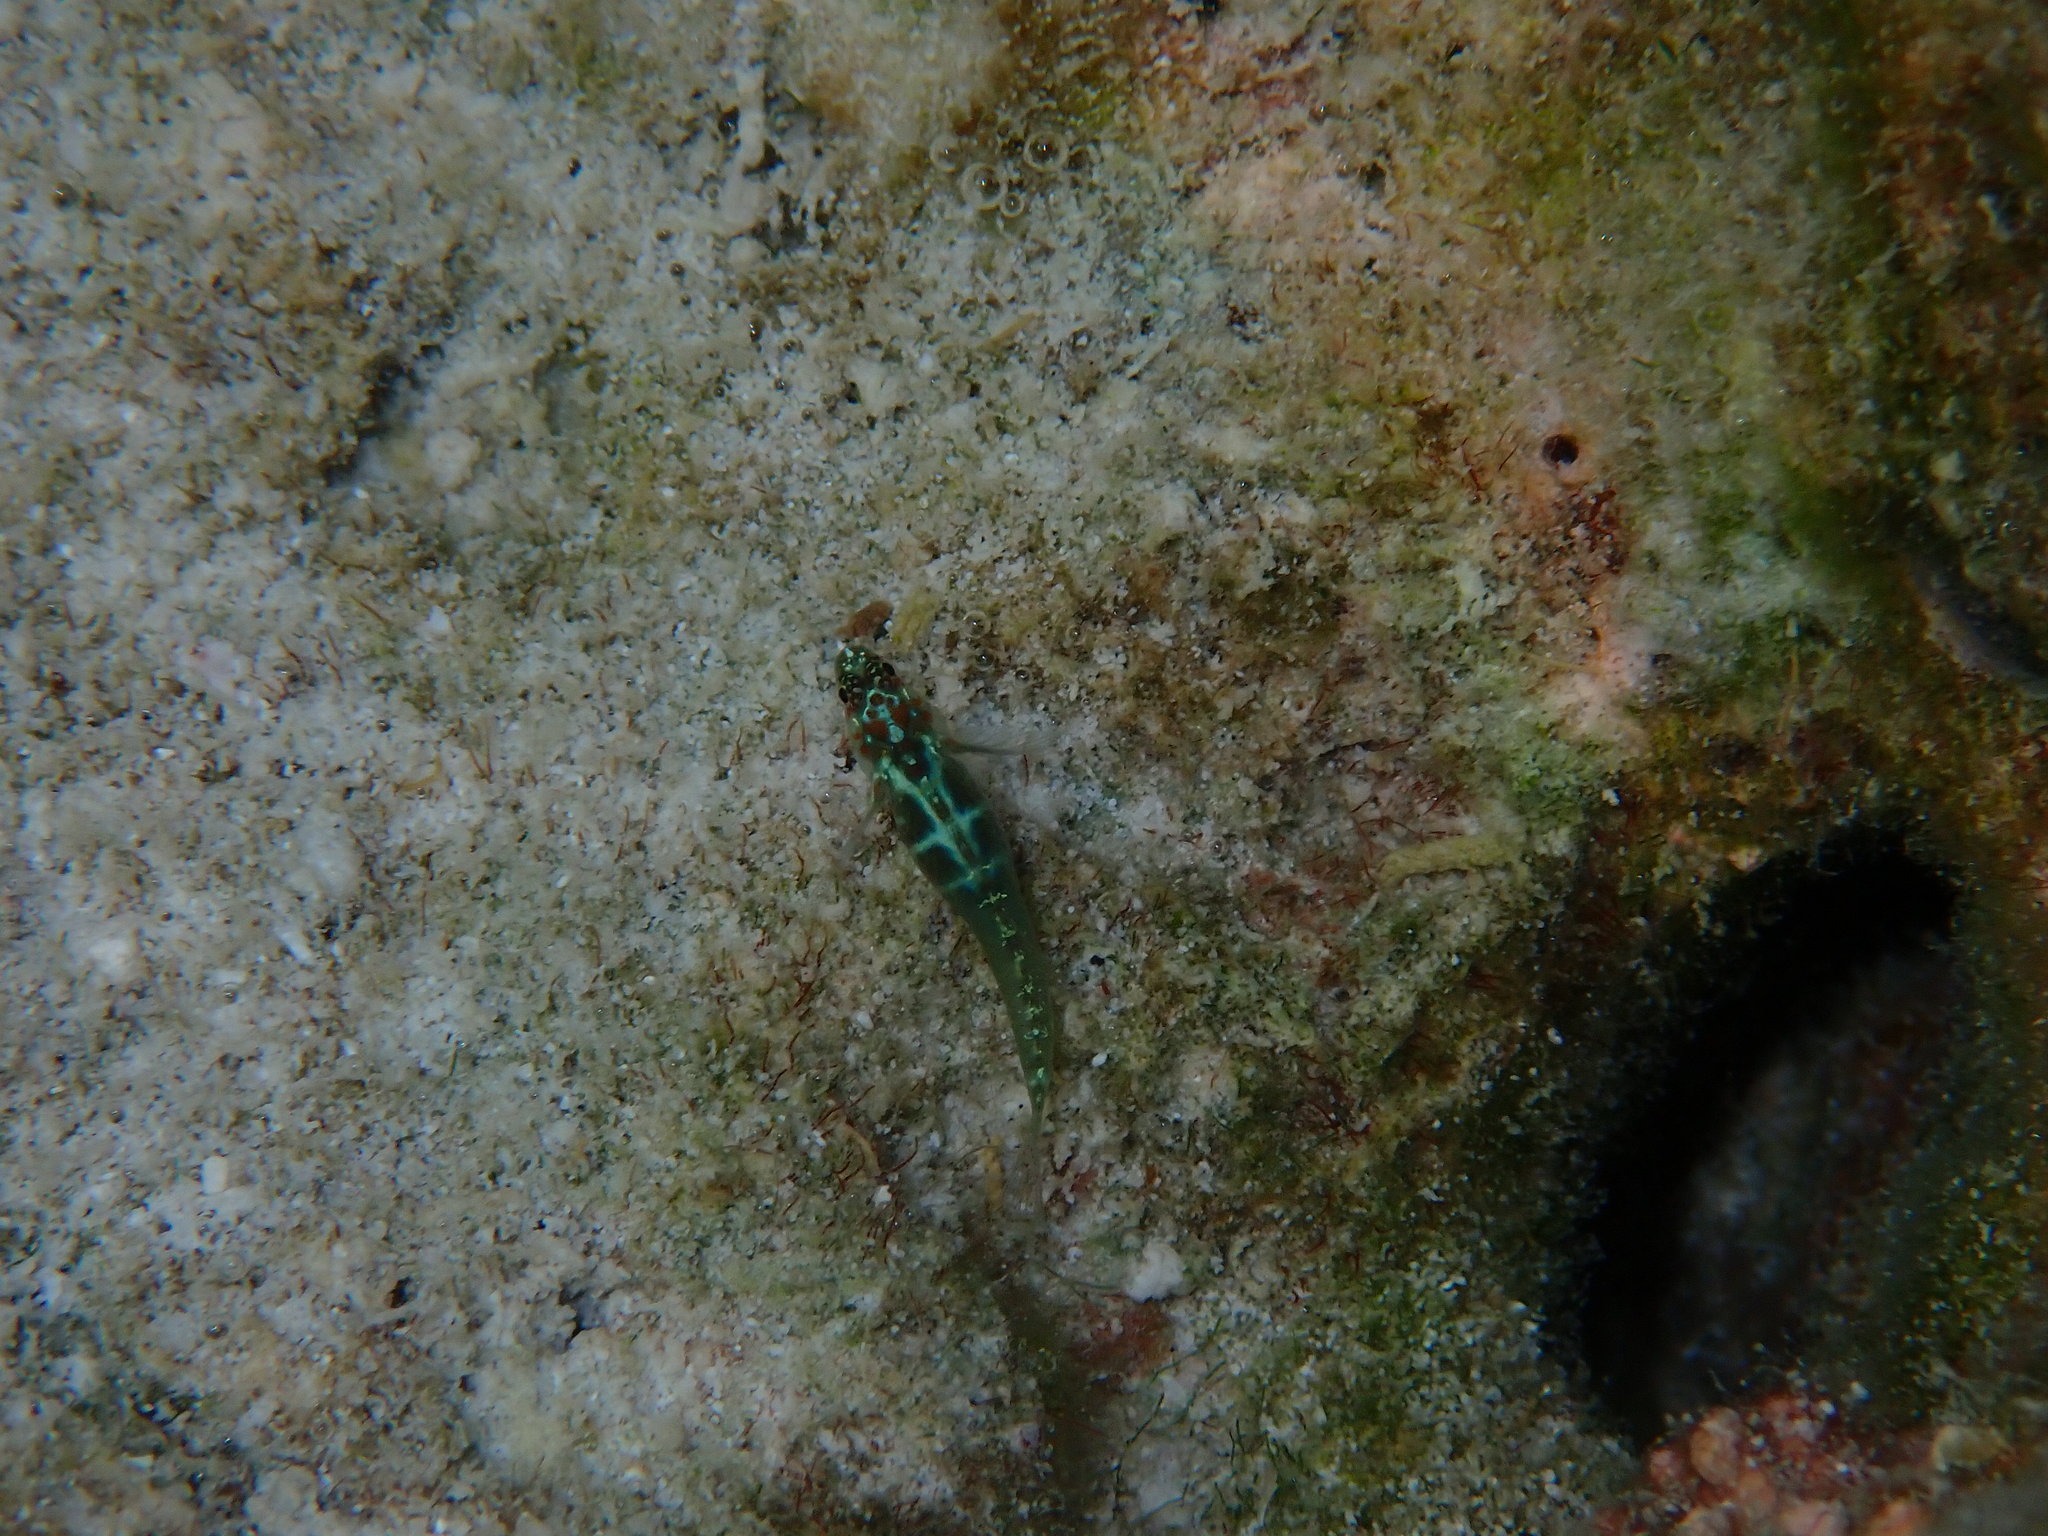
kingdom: Animalia
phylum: Chordata
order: Perciformes
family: Gobiidae
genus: Eviota
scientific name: Eviota maculosa
